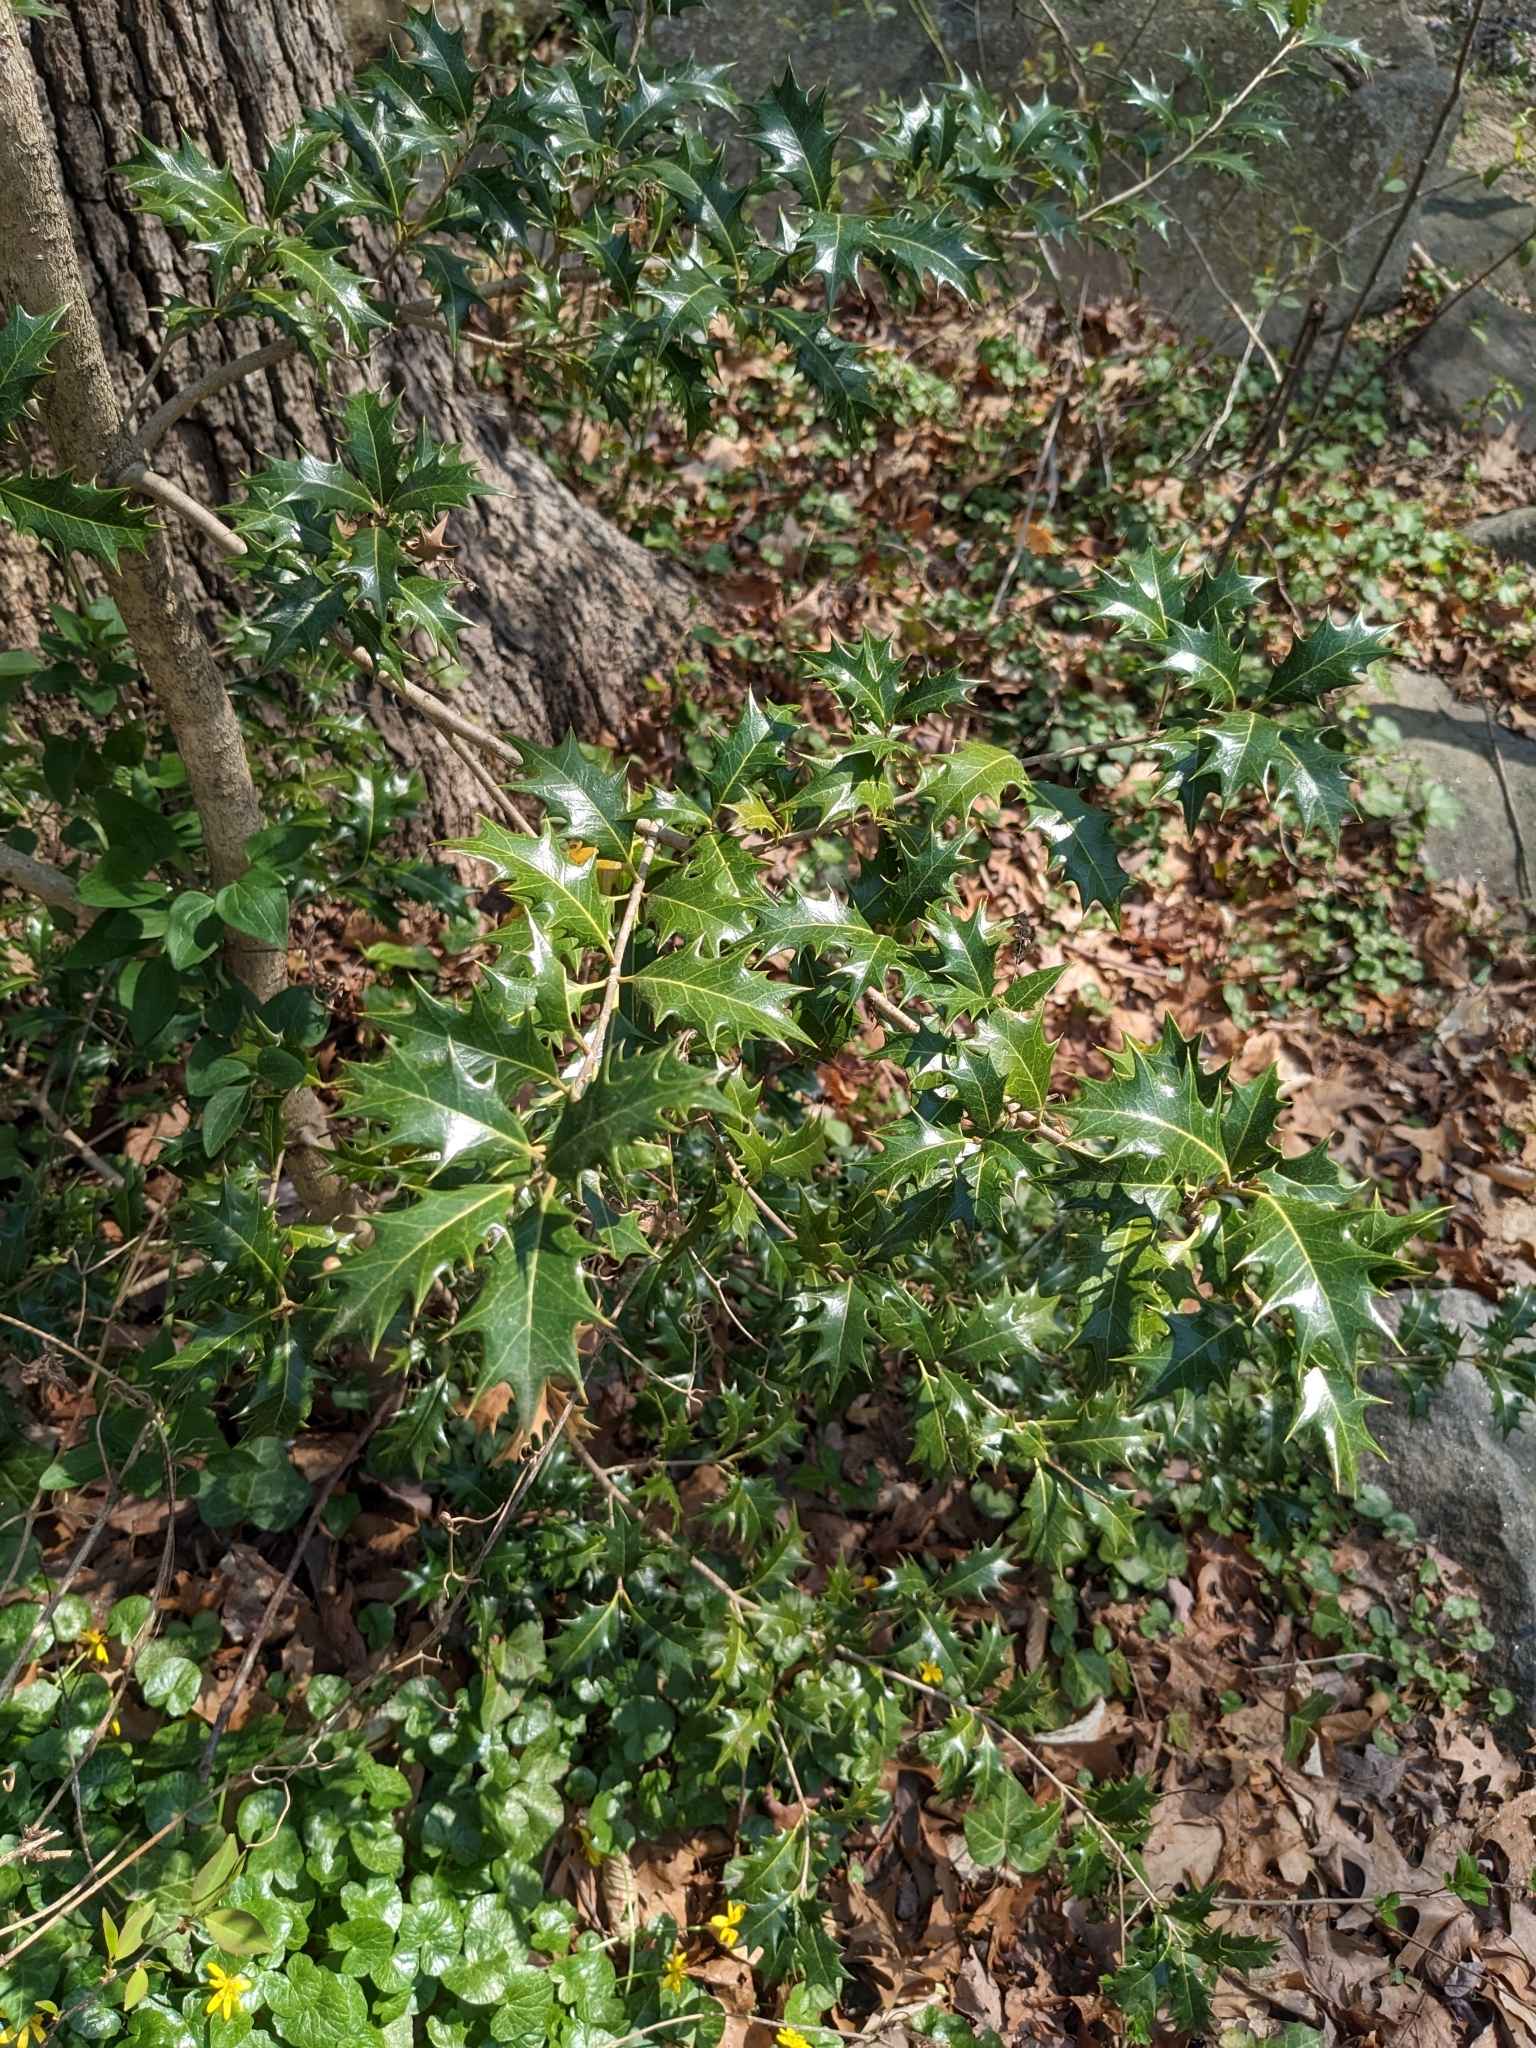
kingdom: Plantae
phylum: Tracheophyta
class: Magnoliopsida
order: Lamiales
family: Oleaceae
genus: Osmanthus
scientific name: Osmanthus heterophyllus
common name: Holly osmanthus
